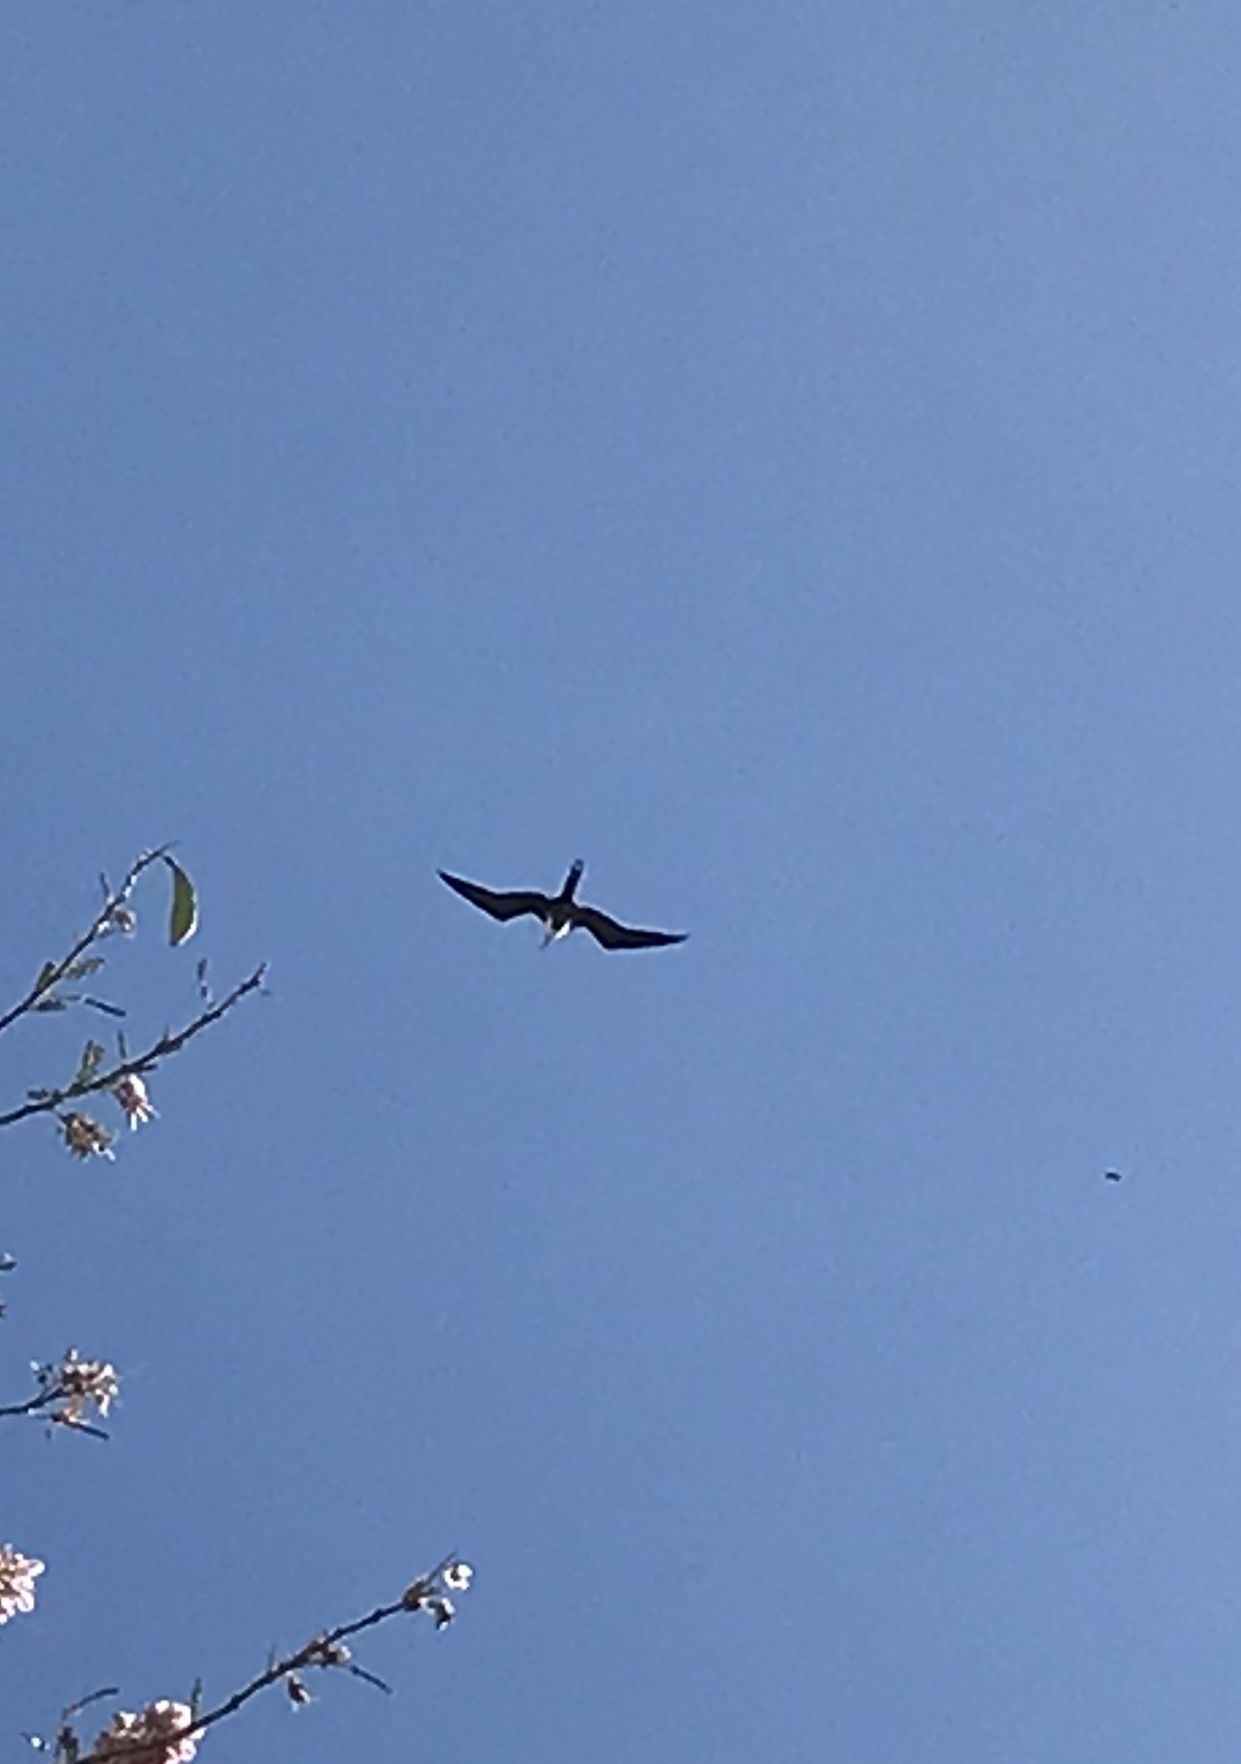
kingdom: Animalia
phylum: Chordata
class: Aves
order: Suliformes
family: Fregatidae
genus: Fregata
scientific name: Fregata magnificens
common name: Magnificent frigatebird
